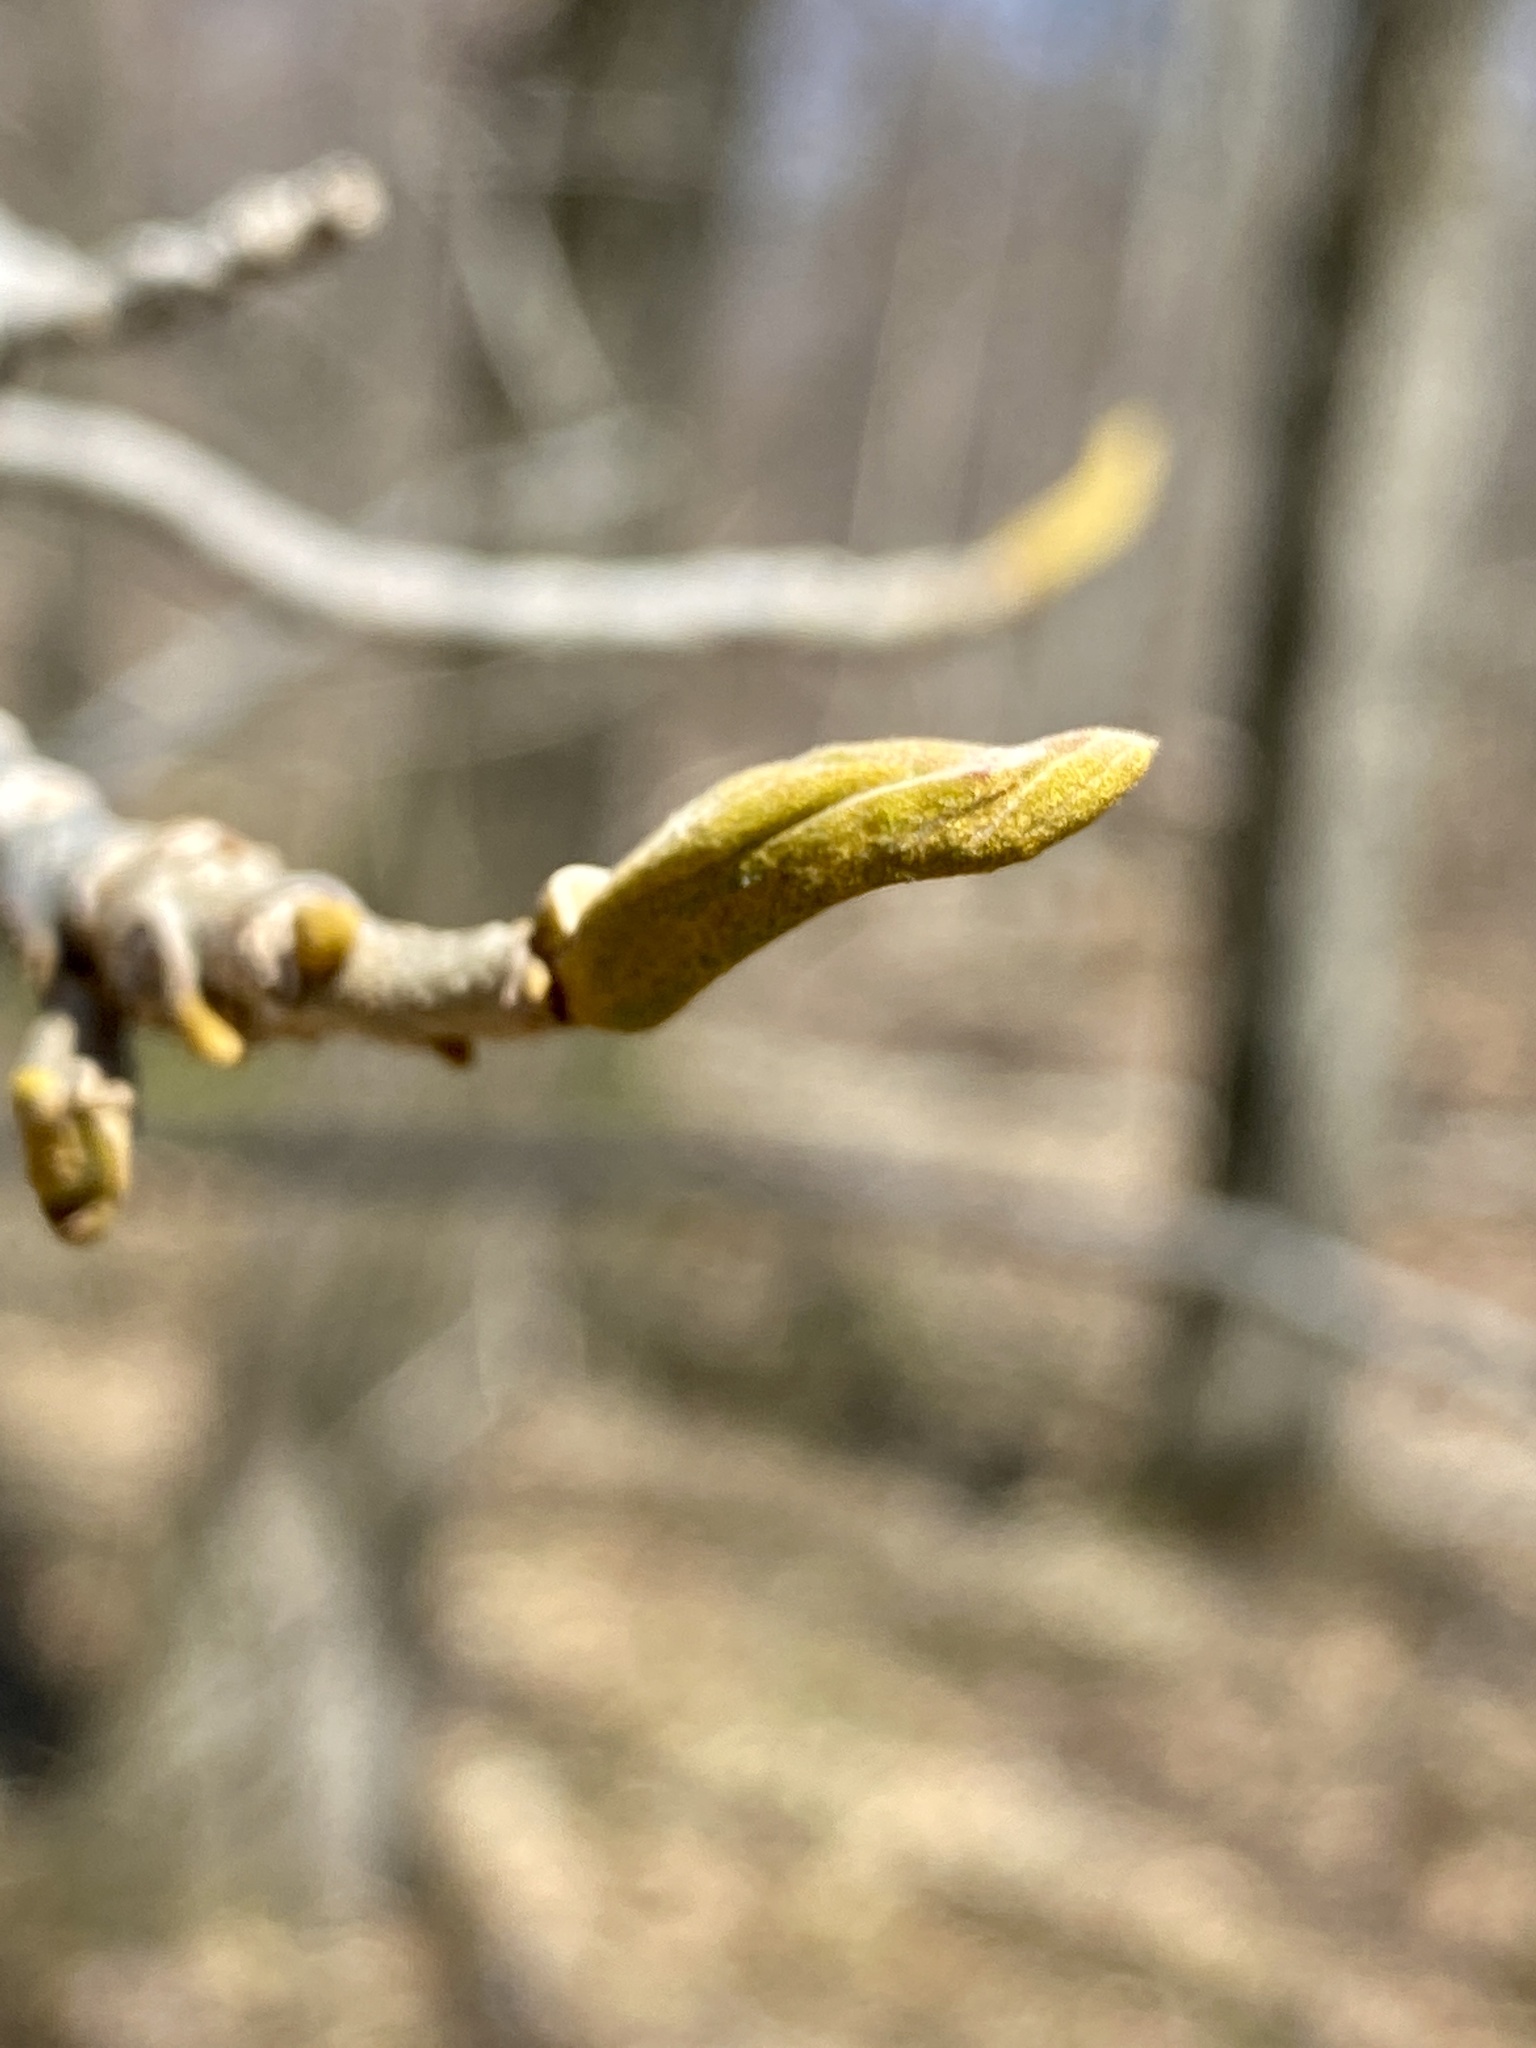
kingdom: Plantae
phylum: Tracheophyta
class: Magnoliopsida
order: Fagales
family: Juglandaceae
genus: Carya
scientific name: Carya cordiformis
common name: Bitternut hickory
